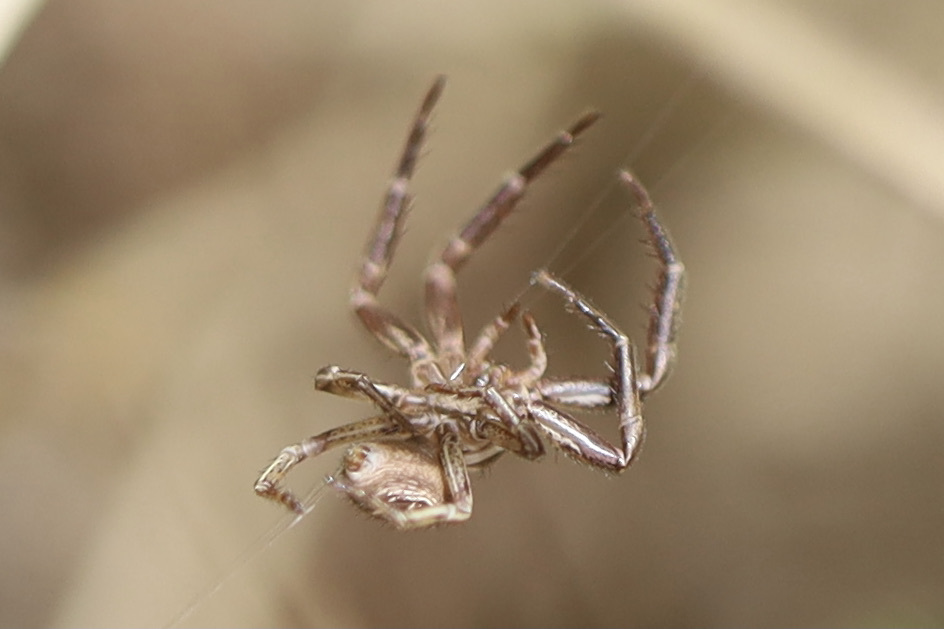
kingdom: Animalia
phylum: Arthropoda
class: Arachnida
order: Araneae
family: Thomisidae
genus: Xysticus
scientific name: Xysticus cristatus
